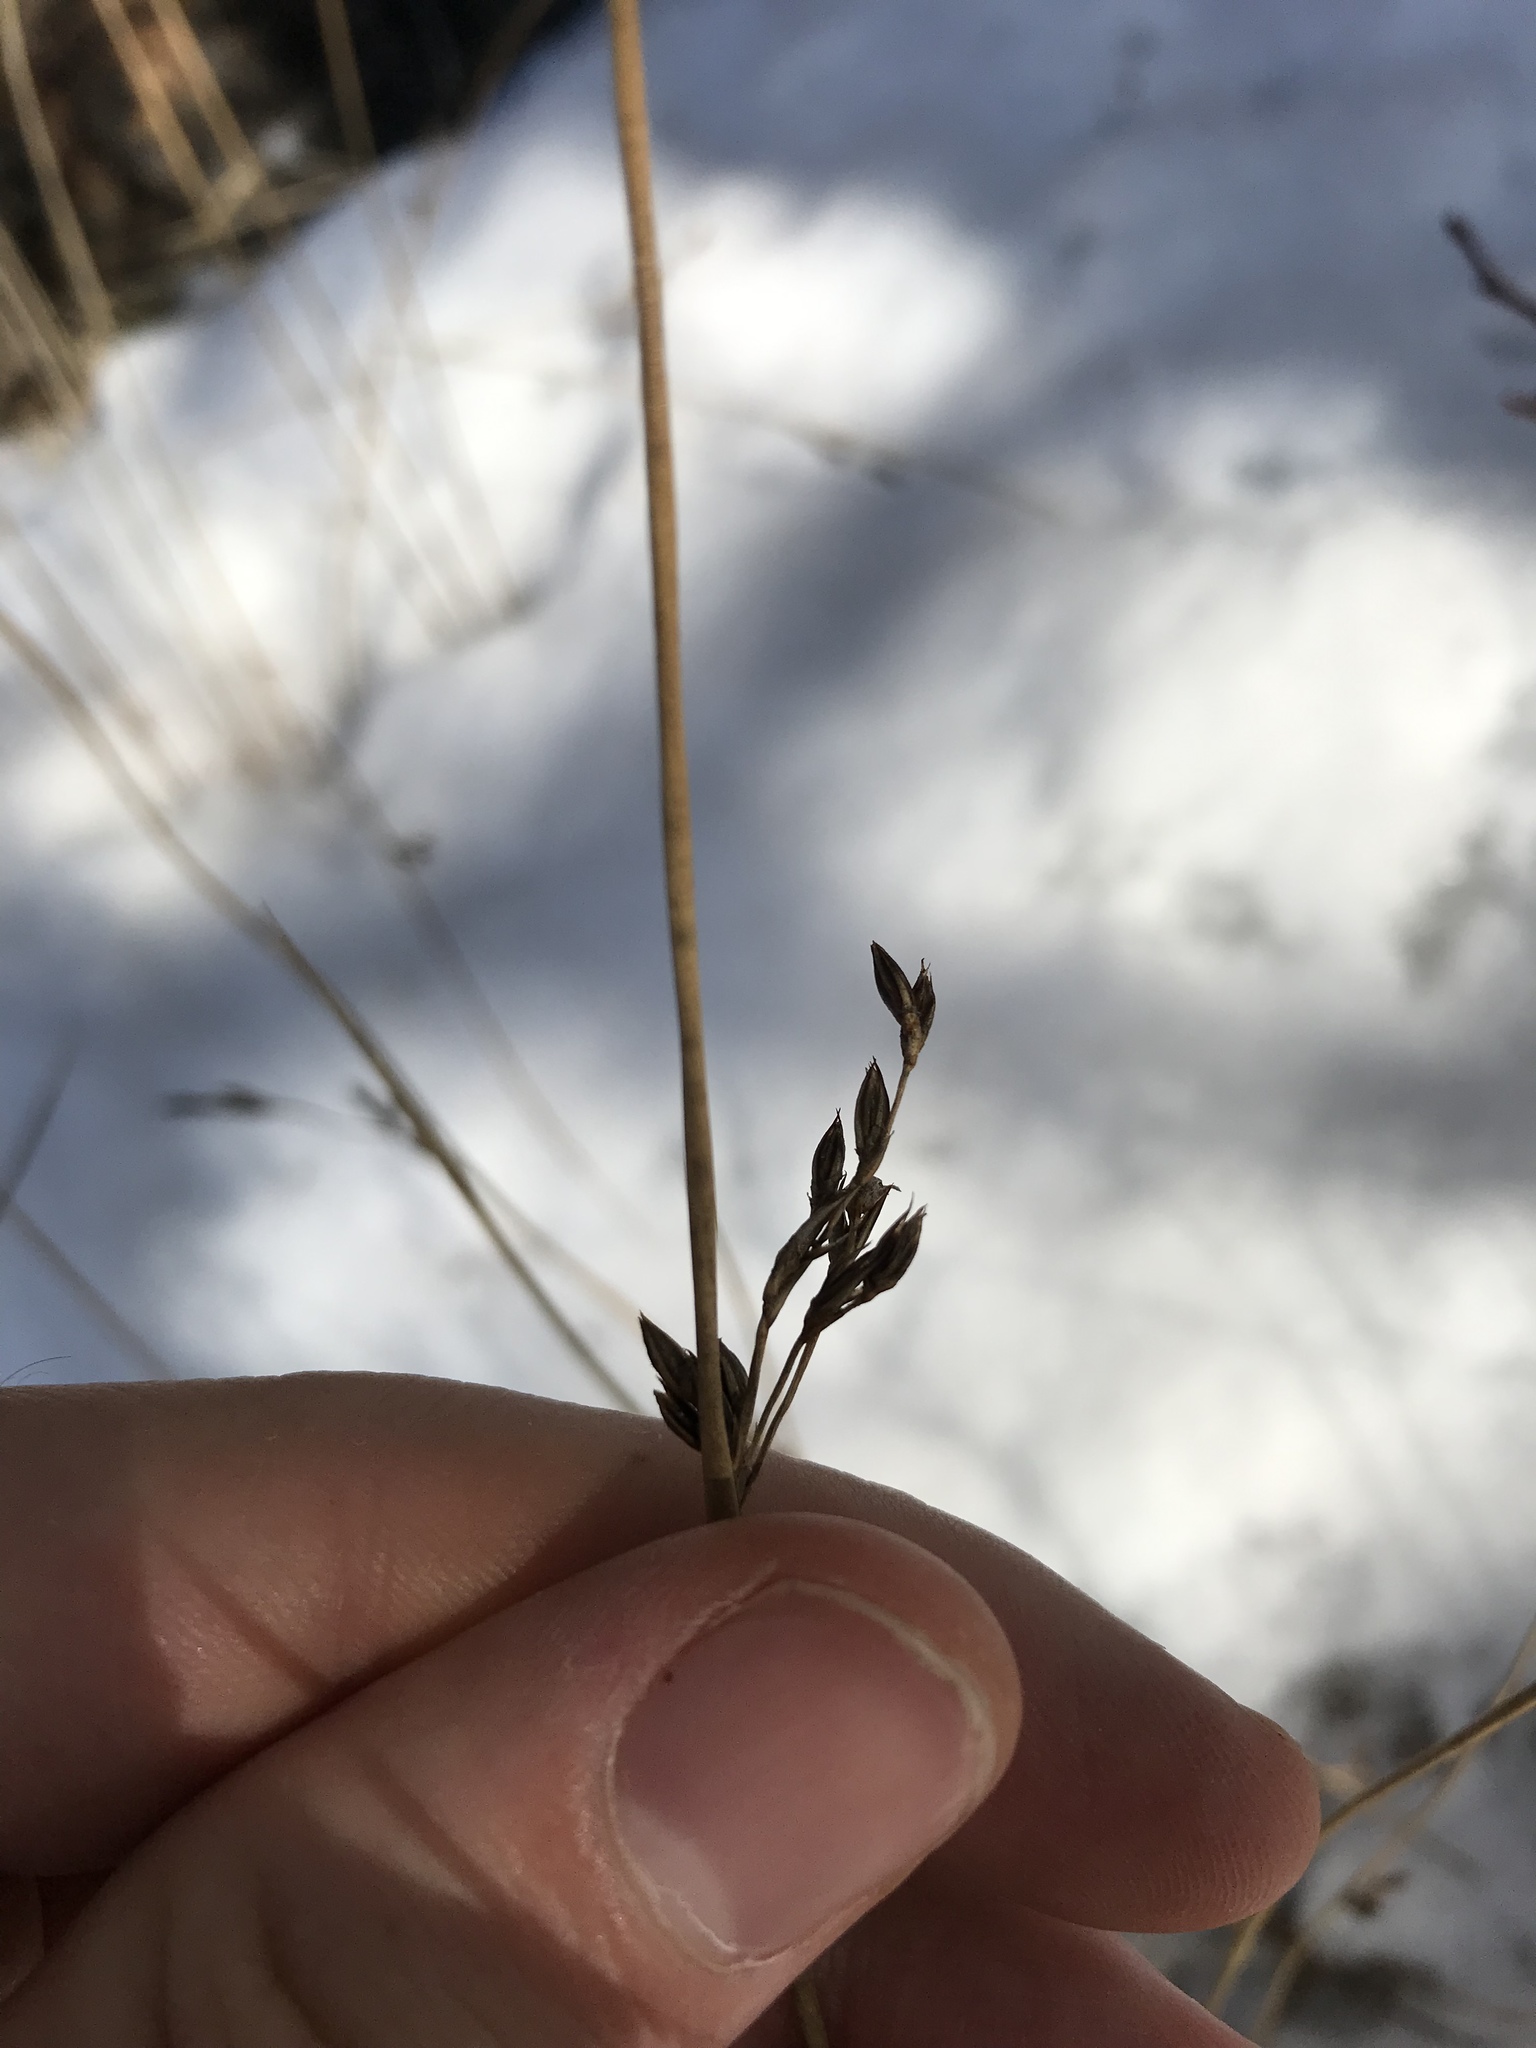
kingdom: Plantae
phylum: Tracheophyta
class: Liliopsida
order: Poales
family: Juncaceae
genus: Juncus
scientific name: Juncus balticus
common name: Baltic rush
